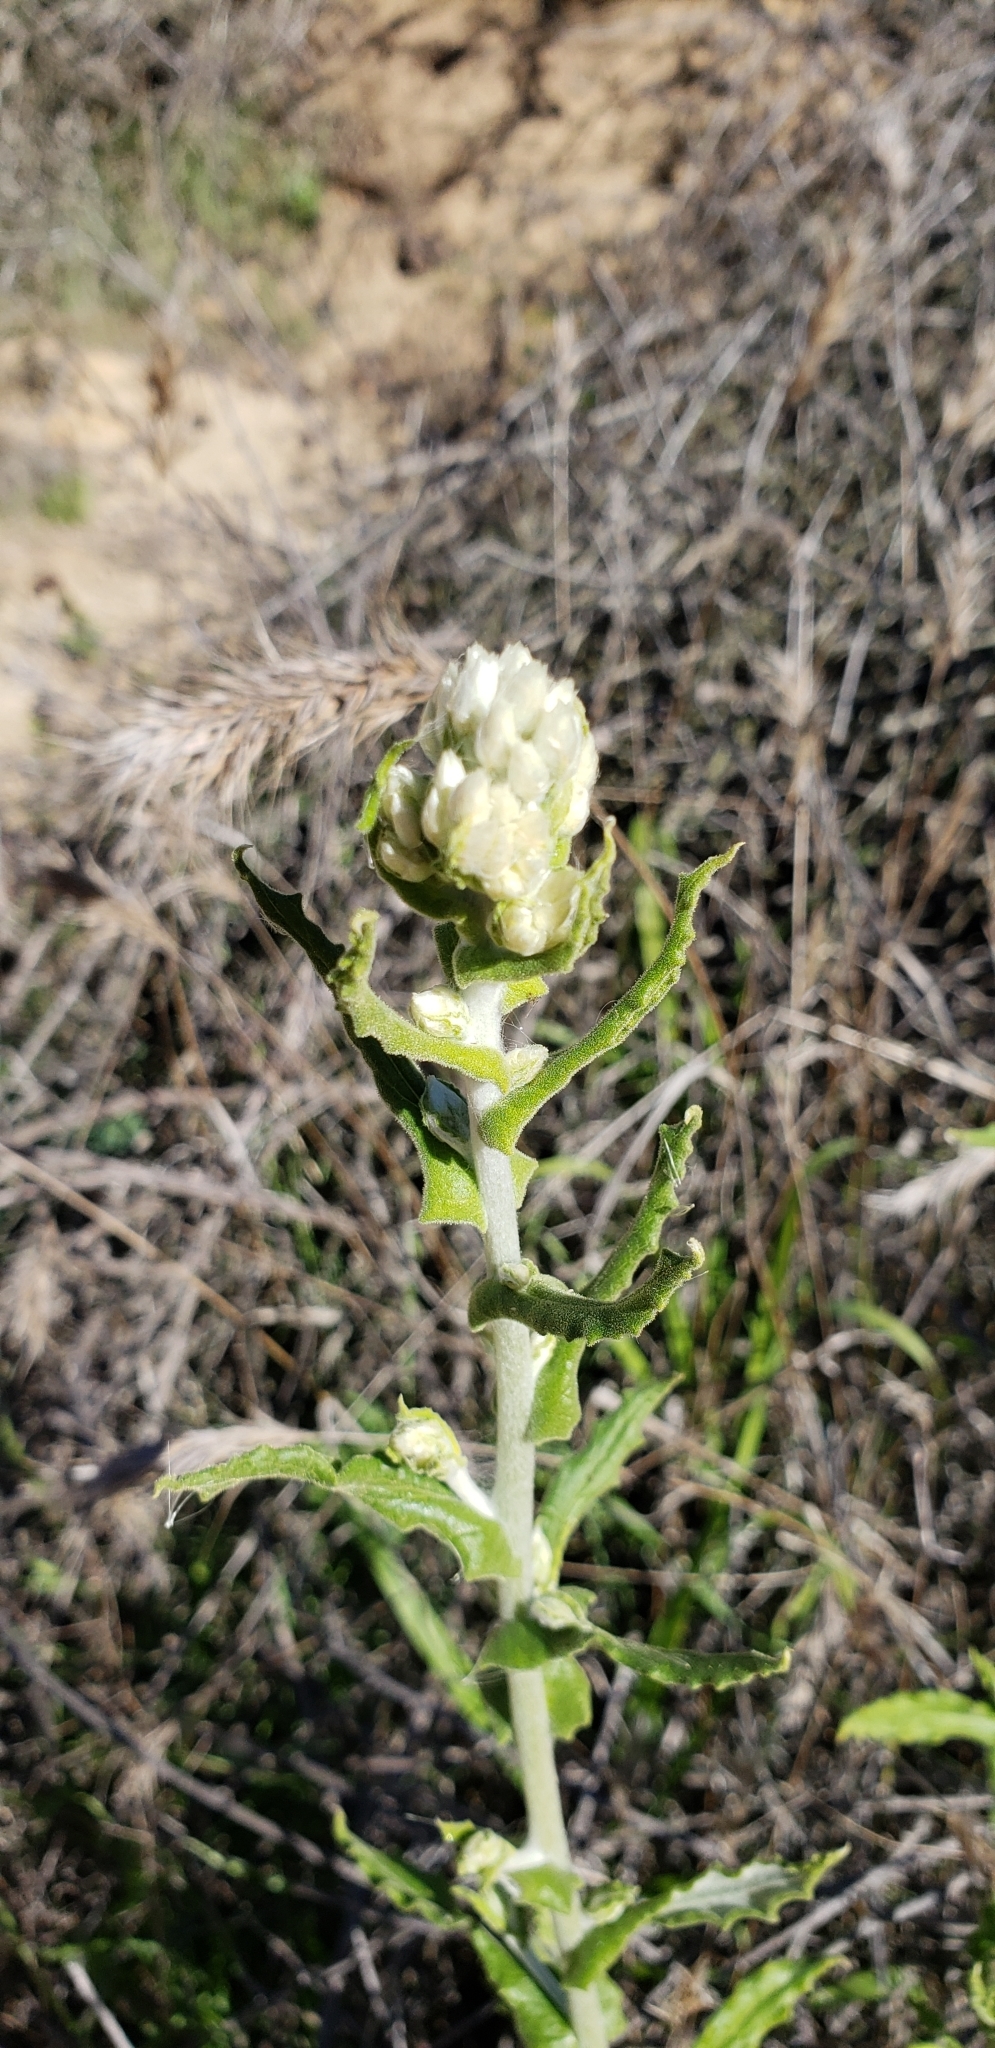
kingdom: Plantae
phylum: Tracheophyta
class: Magnoliopsida
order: Asterales
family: Asteraceae
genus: Pseudognaphalium
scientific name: Pseudognaphalium biolettii
